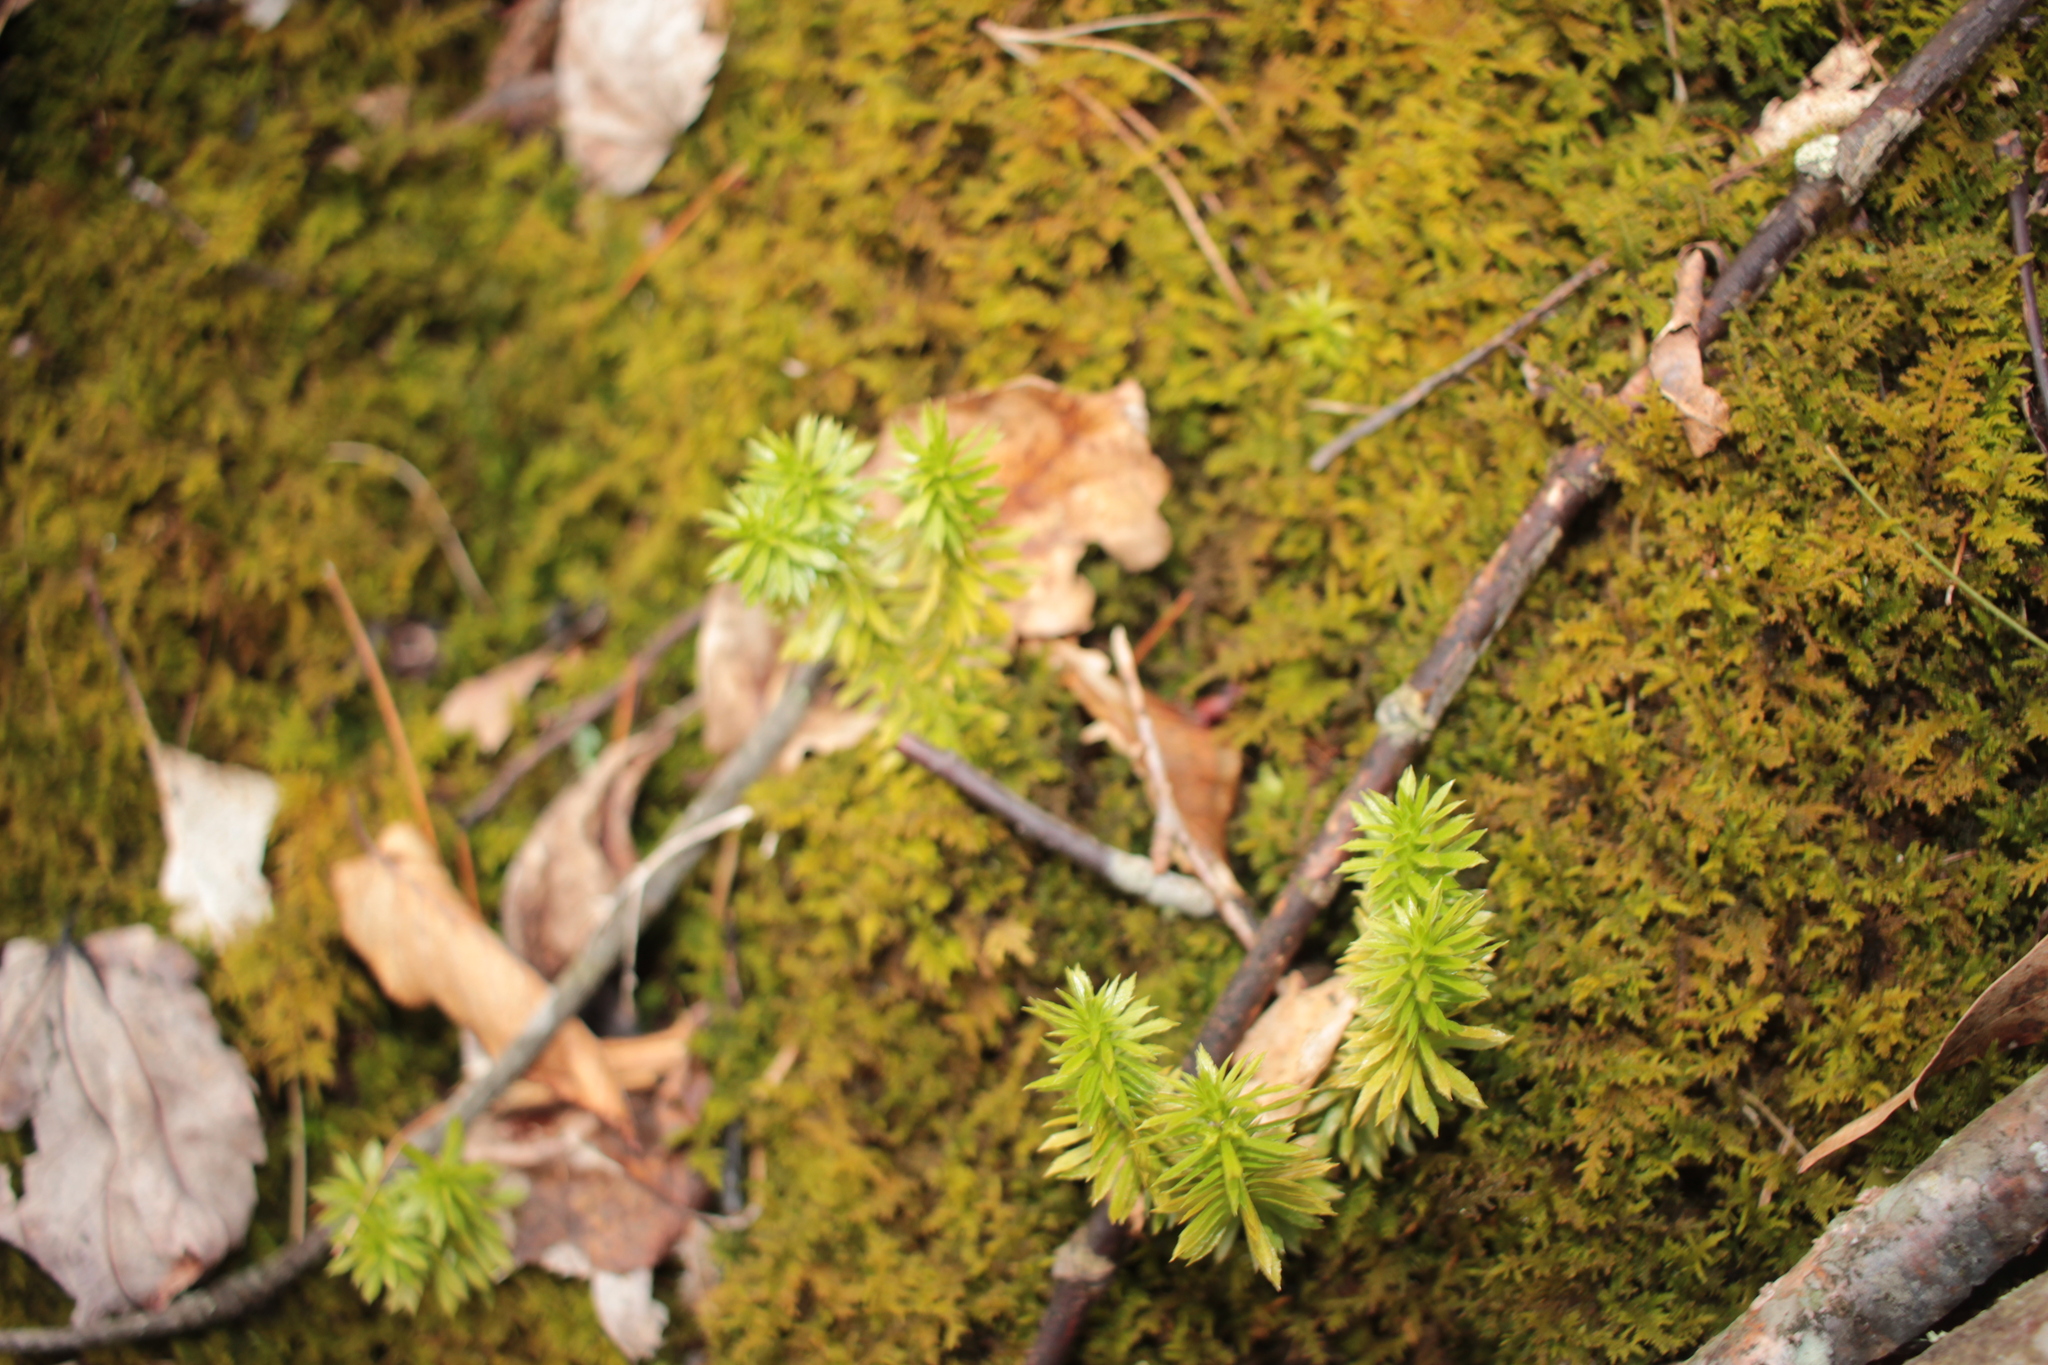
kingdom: Plantae
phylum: Tracheophyta
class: Lycopodiopsida
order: Lycopodiales
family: Lycopodiaceae
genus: Huperzia
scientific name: Huperzia lucidula
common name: Shining clubmoss
